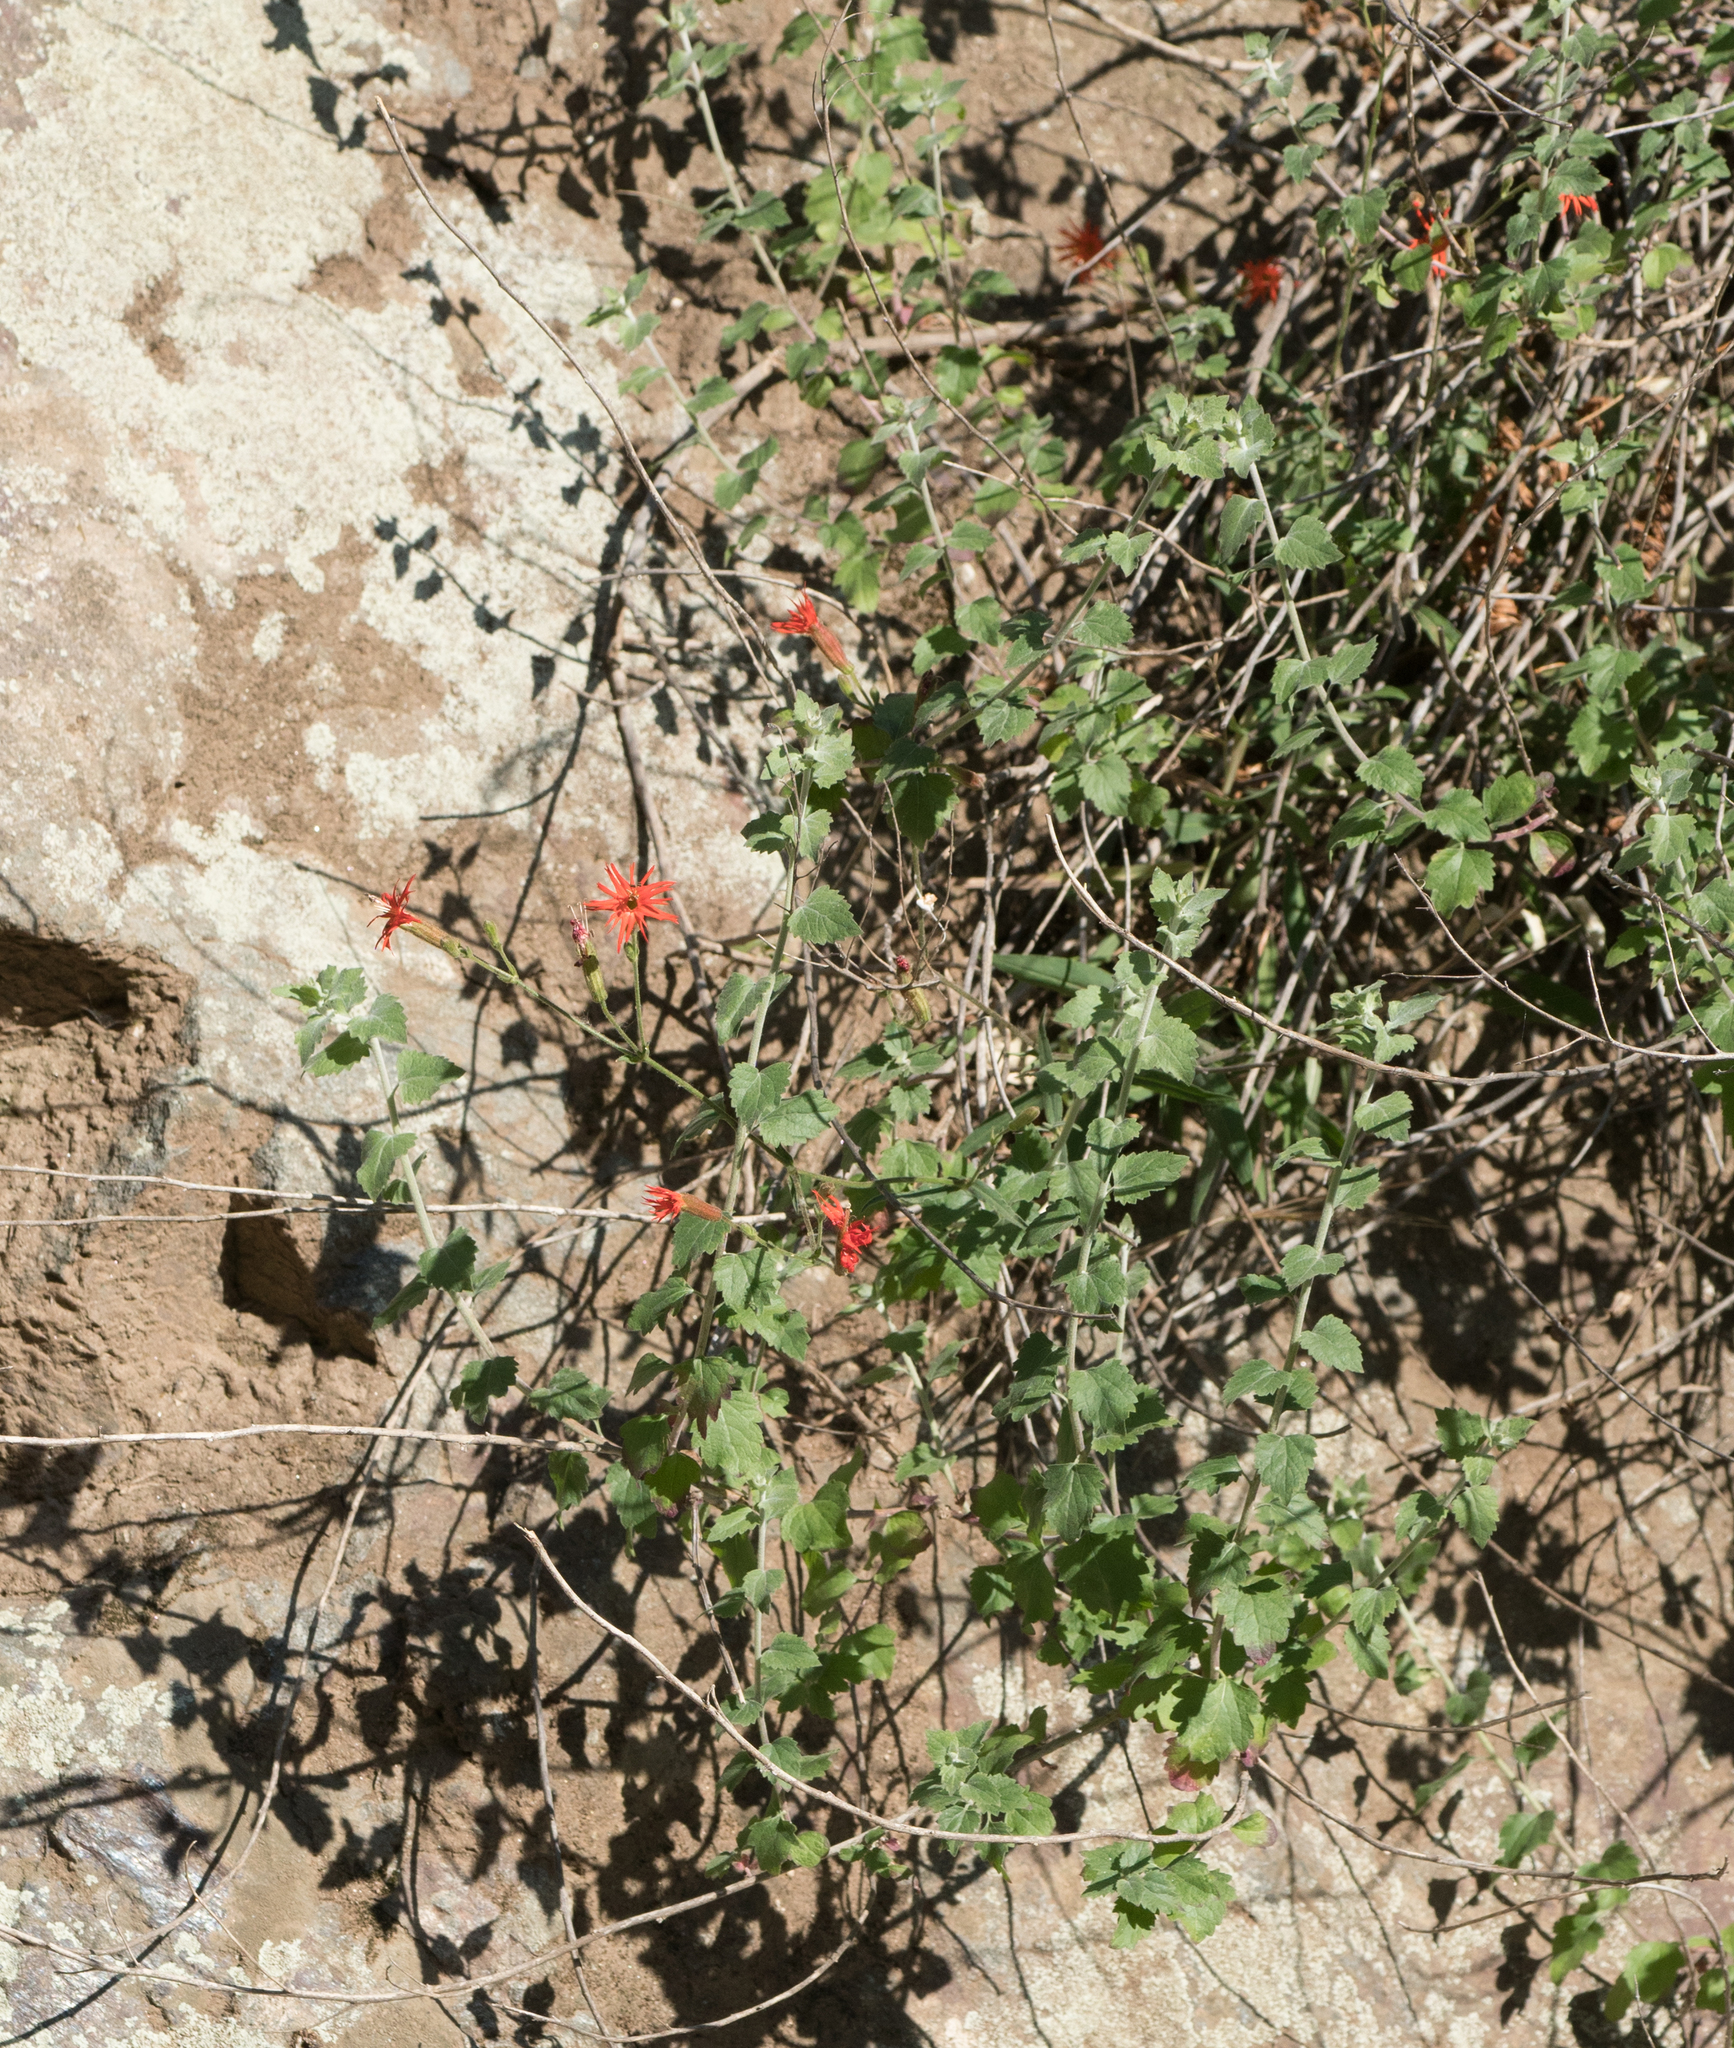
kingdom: Plantae
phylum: Tracheophyta
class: Magnoliopsida
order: Caryophyllales
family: Caryophyllaceae
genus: Silene
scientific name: Silene laciniata
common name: Indian-pink
